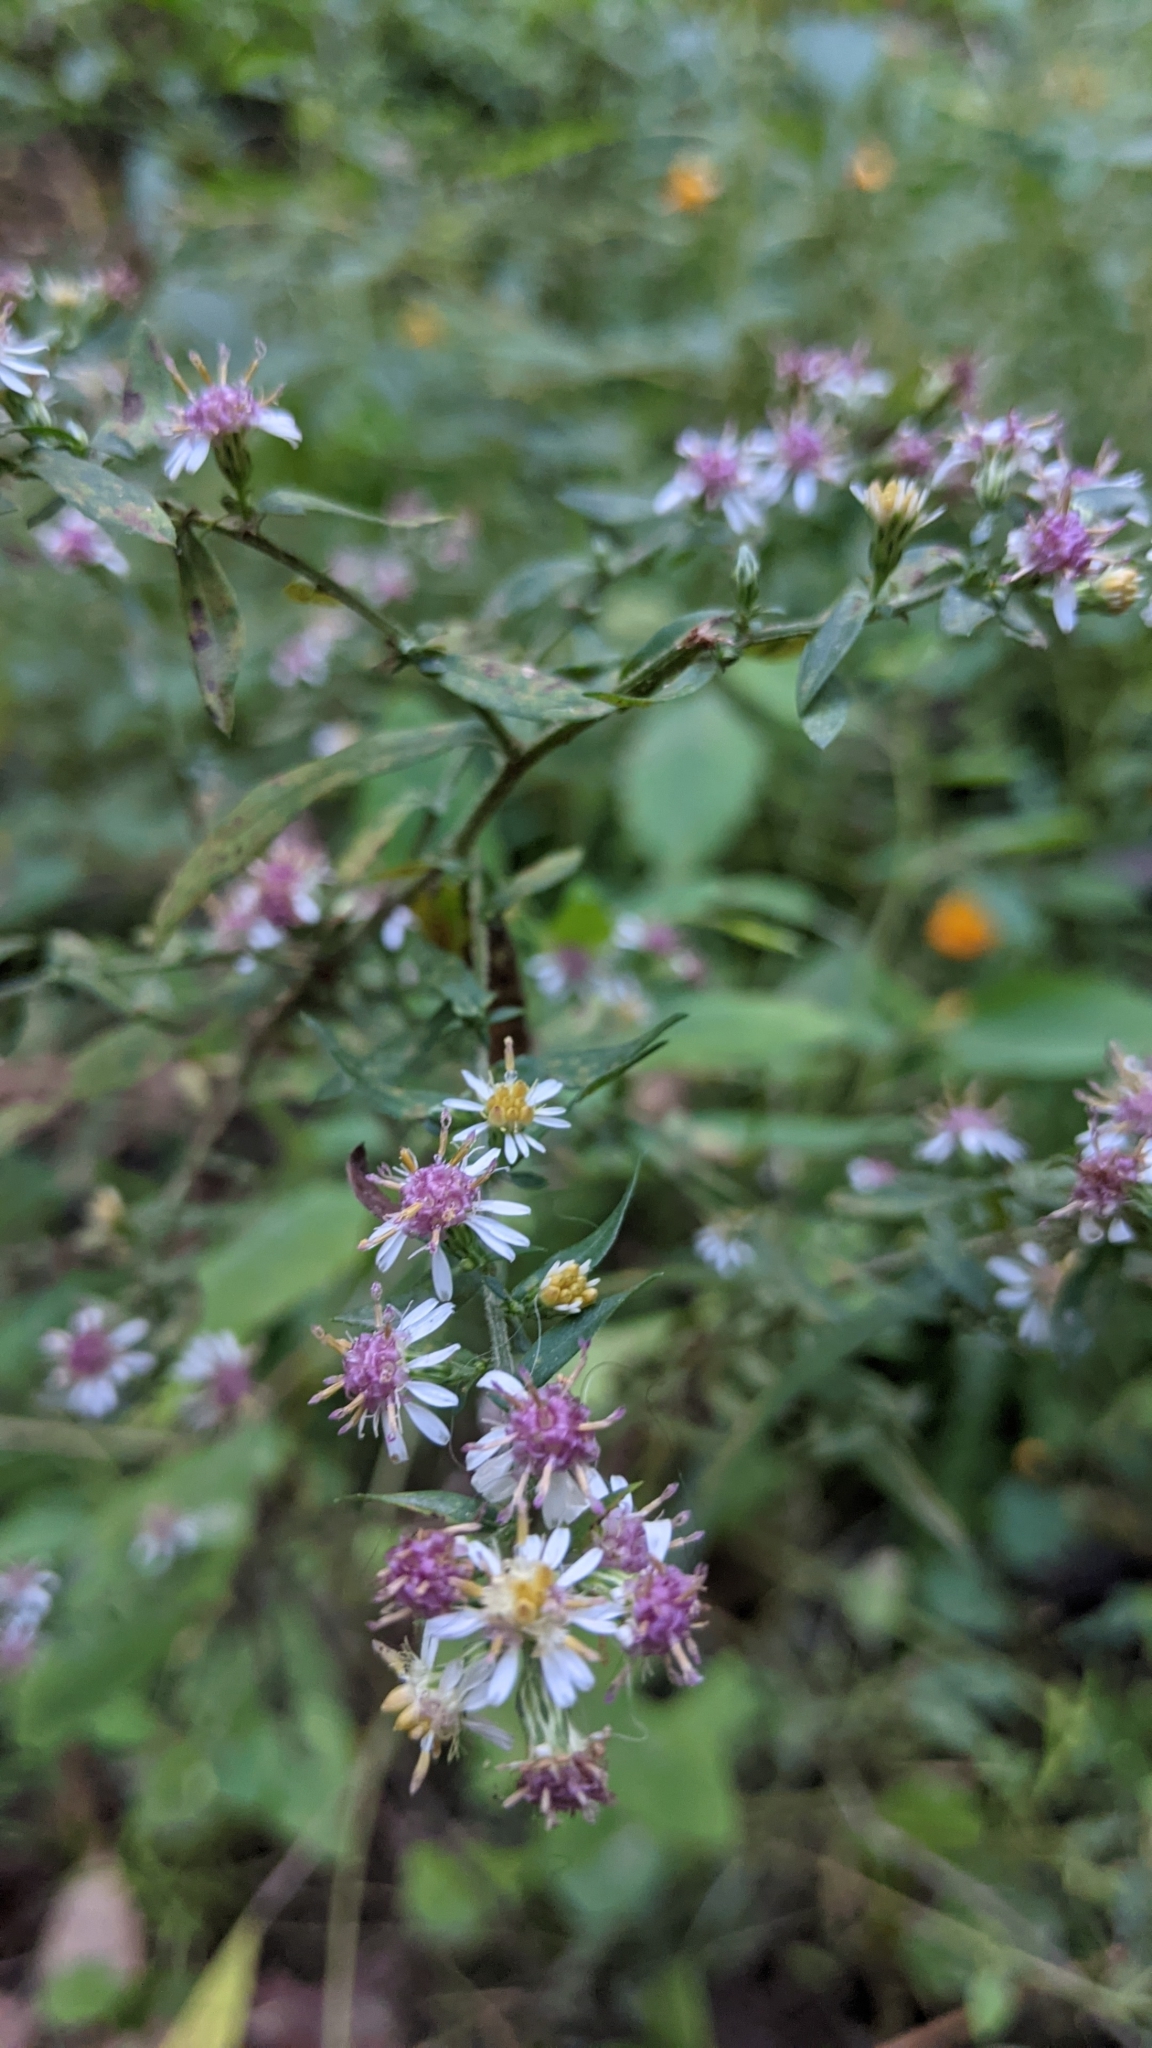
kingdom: Plantae
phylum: Tracheophyta
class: Magnoliopsida
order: Asterales
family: Asteraceae
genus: Symphyotrichum
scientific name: Symphyotrichum lateriflorum
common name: Calico aster
